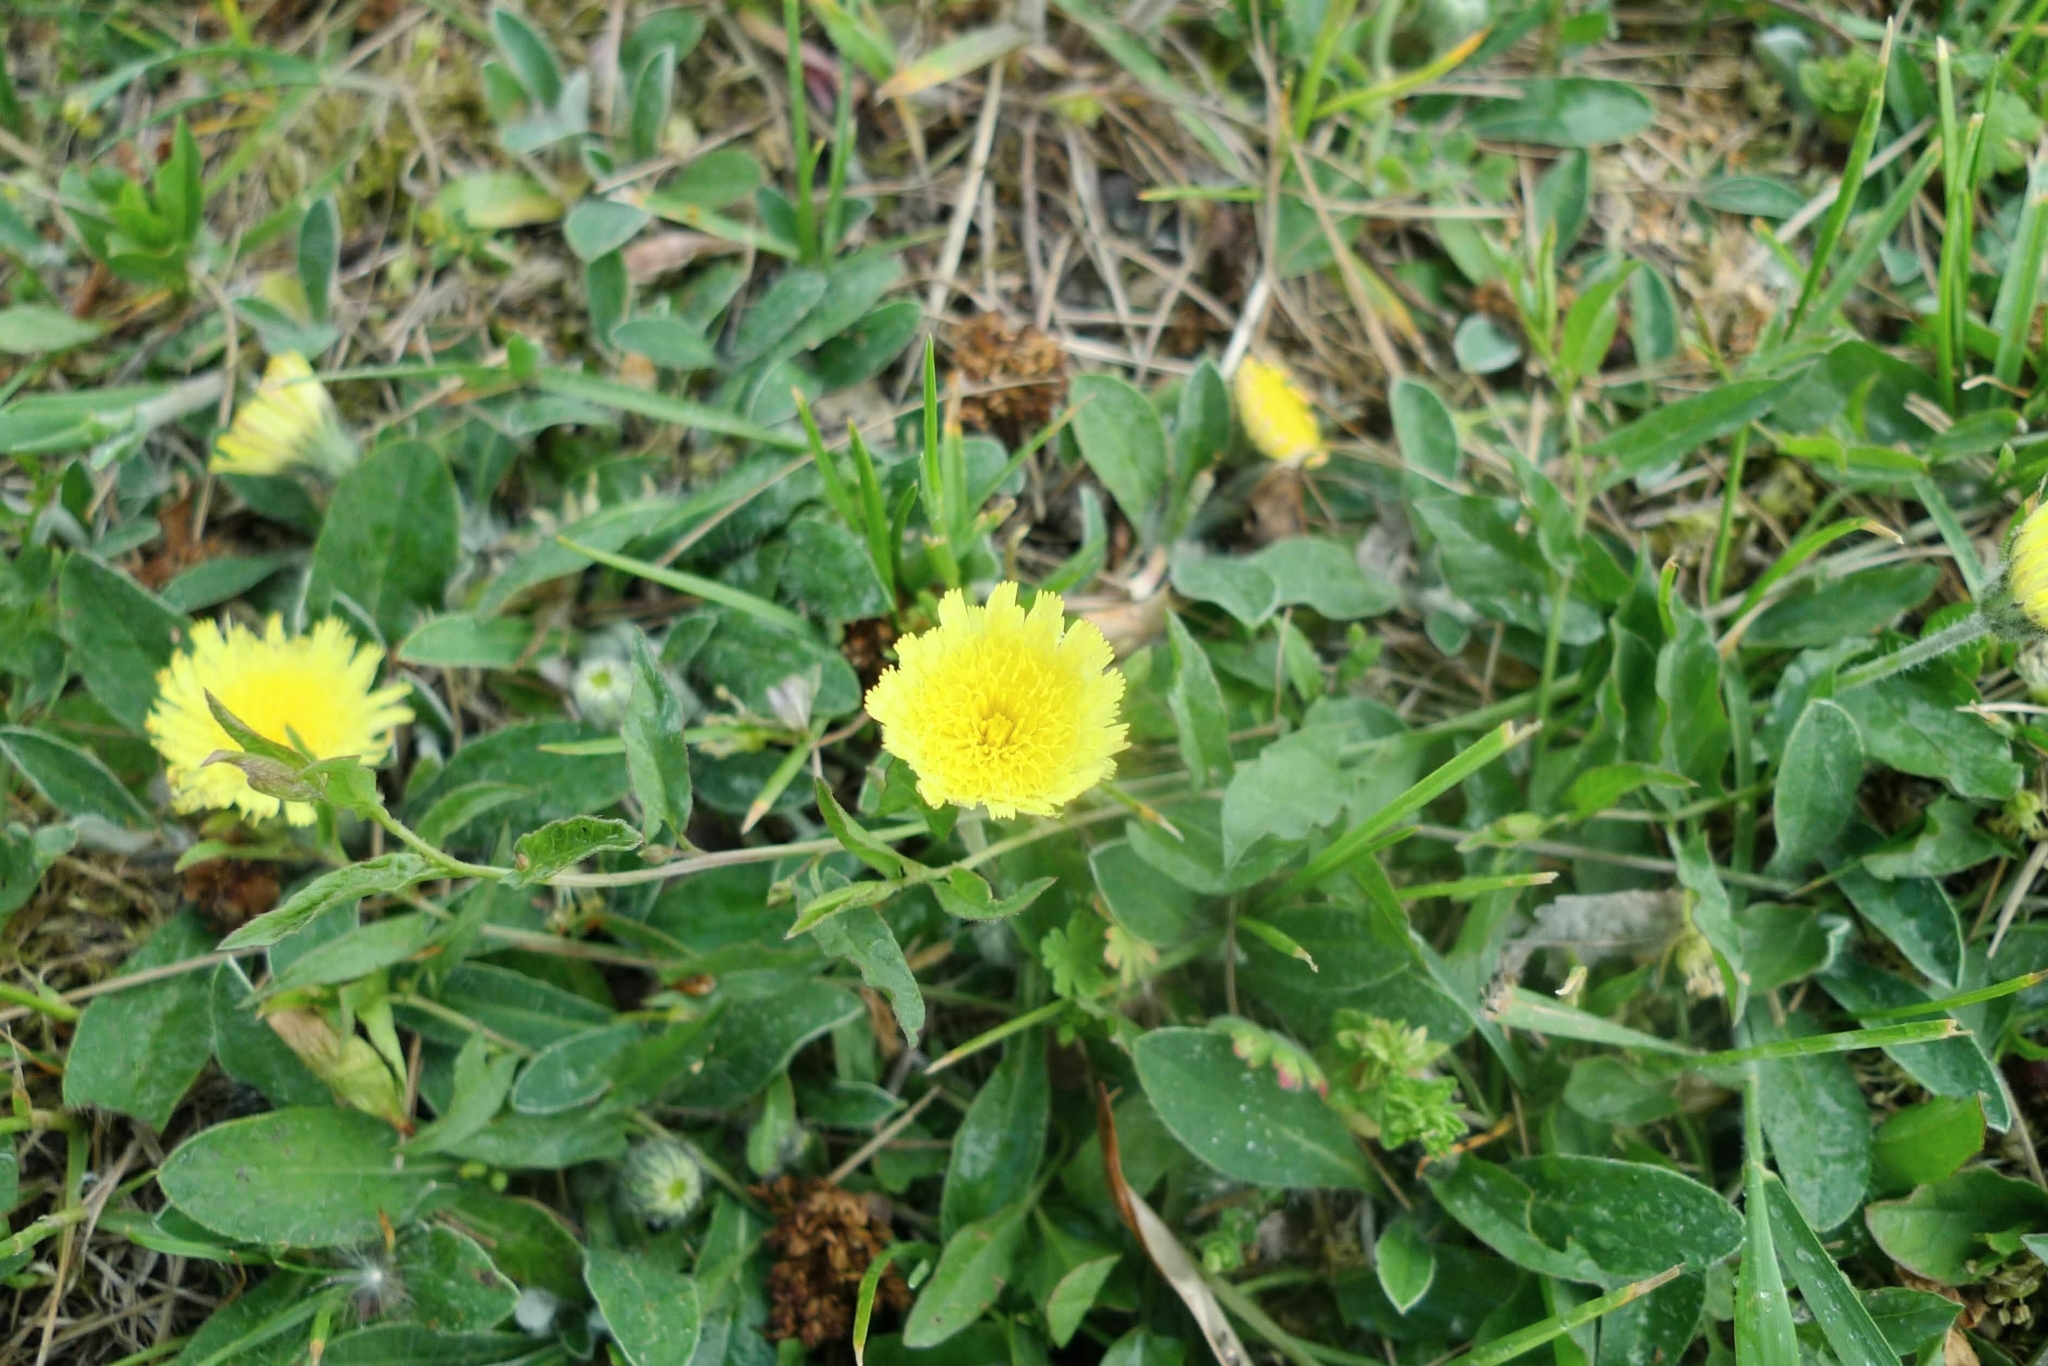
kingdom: Plantae
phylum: Tracheophyta
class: Magnoliopsida
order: Asterales
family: Asteraceae
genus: Pilosella
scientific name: Pilosella officinarum
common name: Mouse-ear hawkweed
